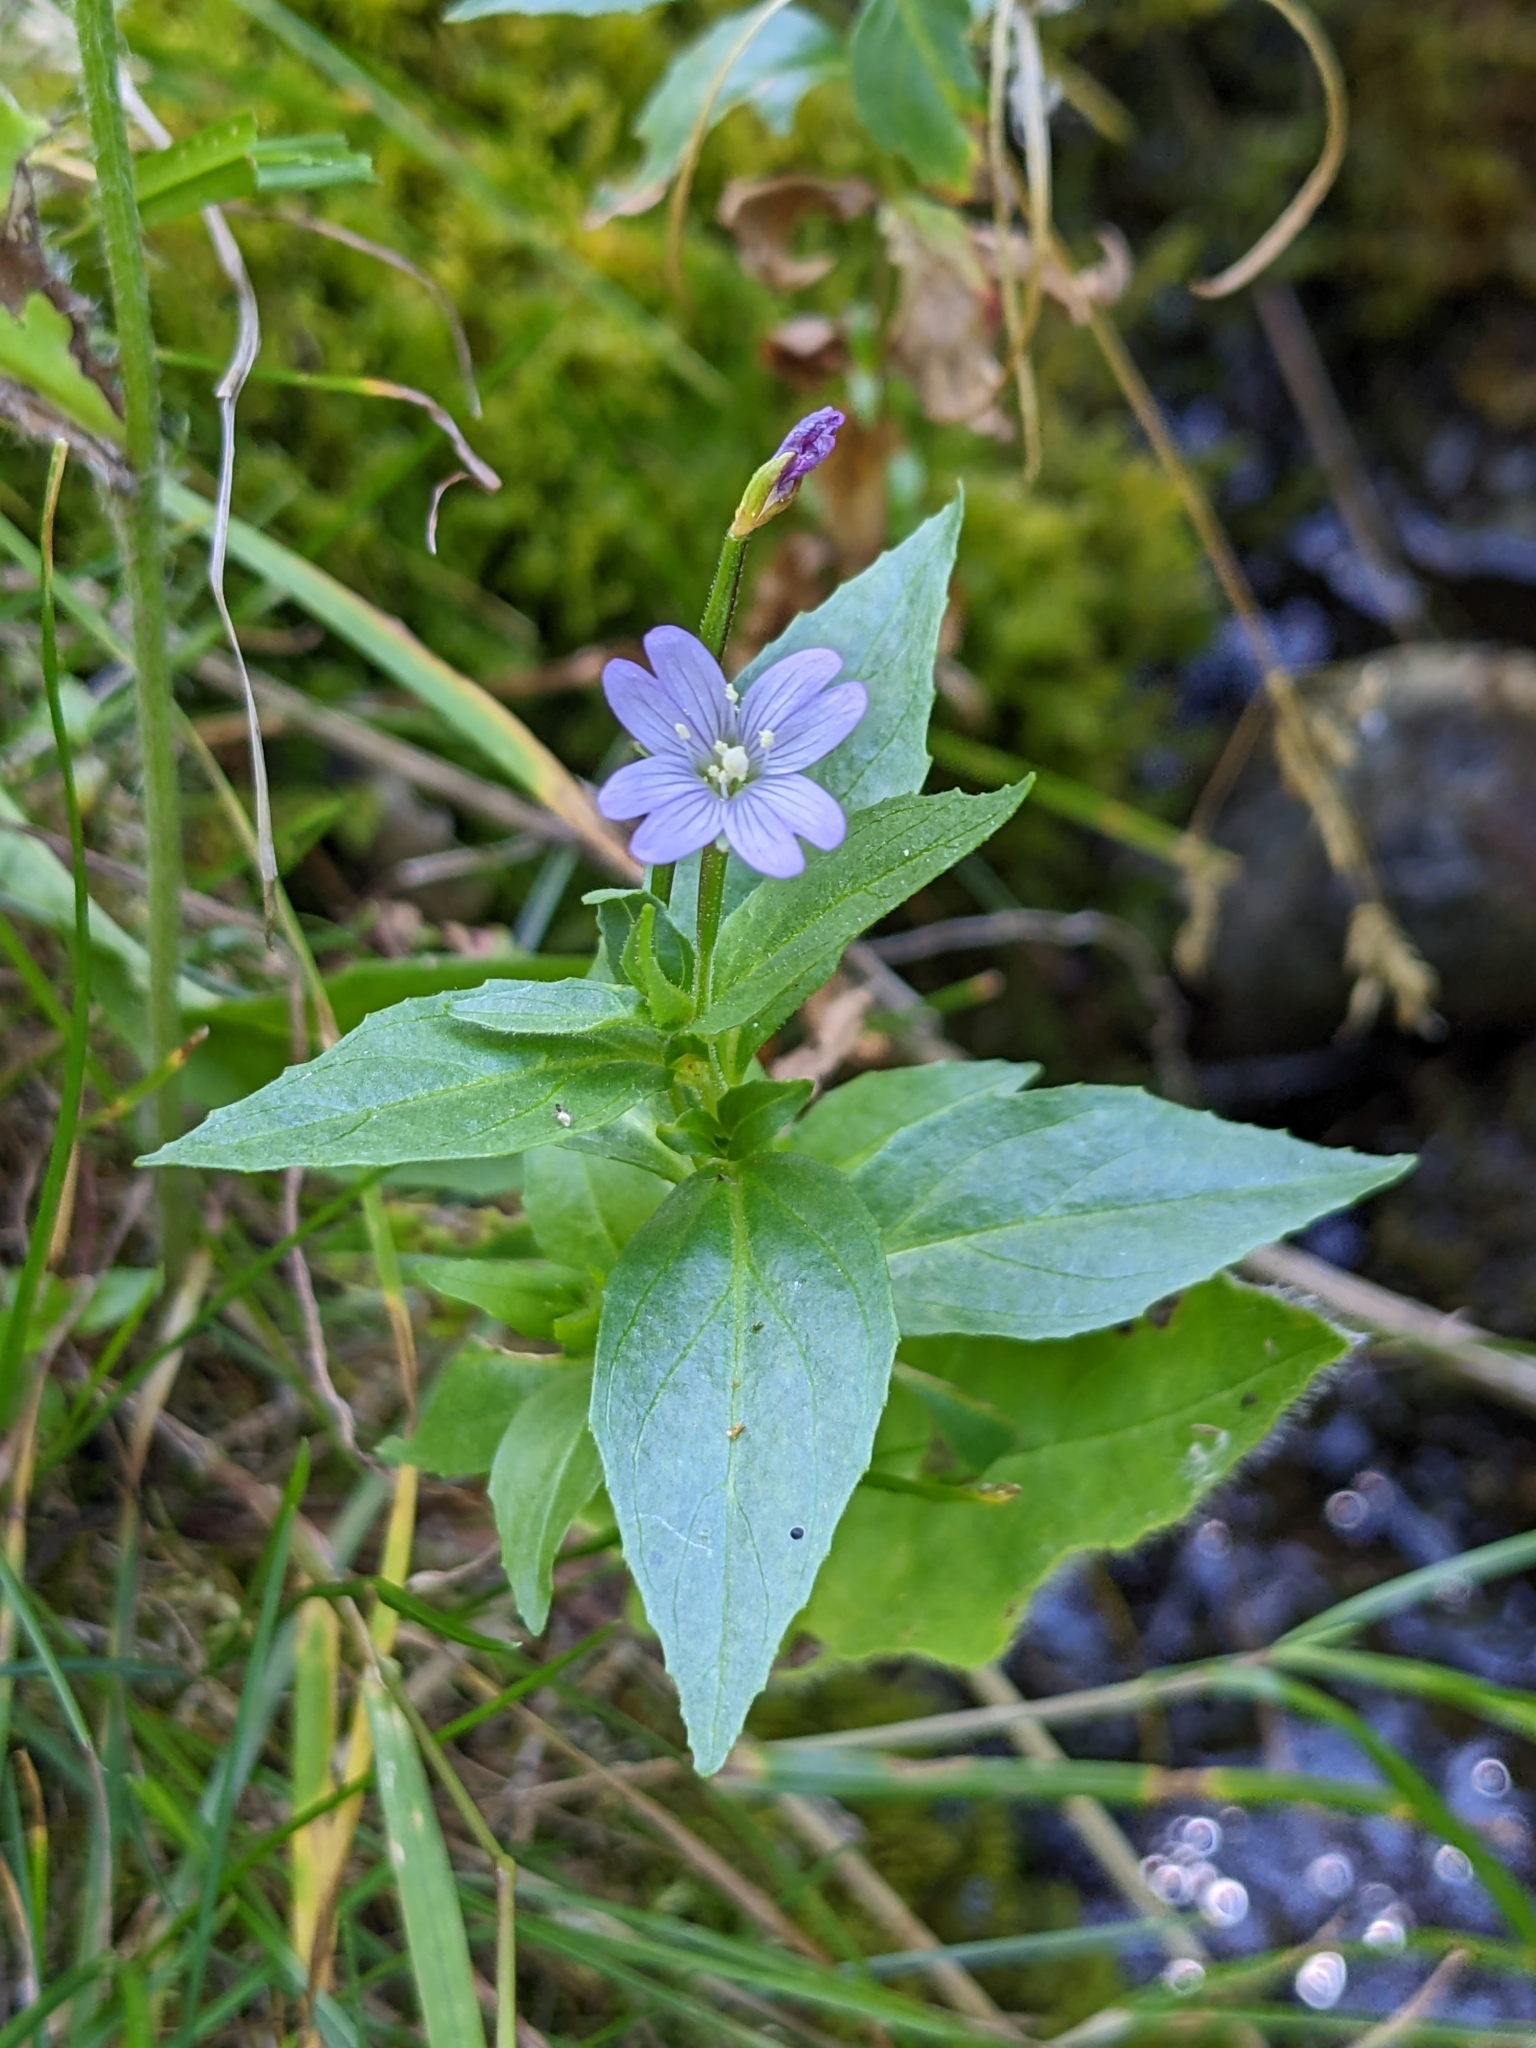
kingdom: Plantae
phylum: Tracheophyta
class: Magnoliopsida
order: Myrtales
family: Onagraceae
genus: Epilobium
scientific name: Epilobium alsinifolium
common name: Chickweed willowherb
